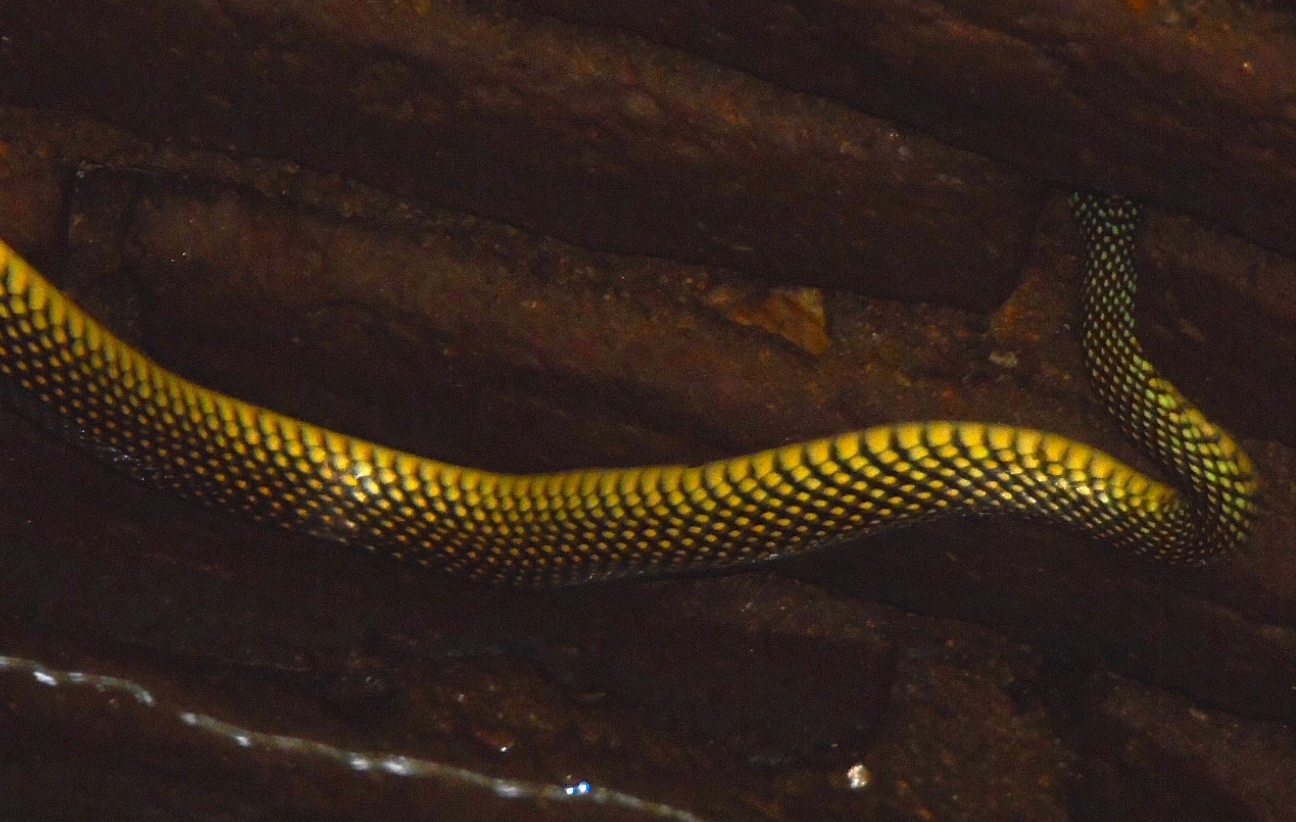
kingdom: Animalia
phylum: Chordata
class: Squamata
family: Colubridae
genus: Drymobius
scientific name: Drymobius margaritiferus
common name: Central american speckled racer
